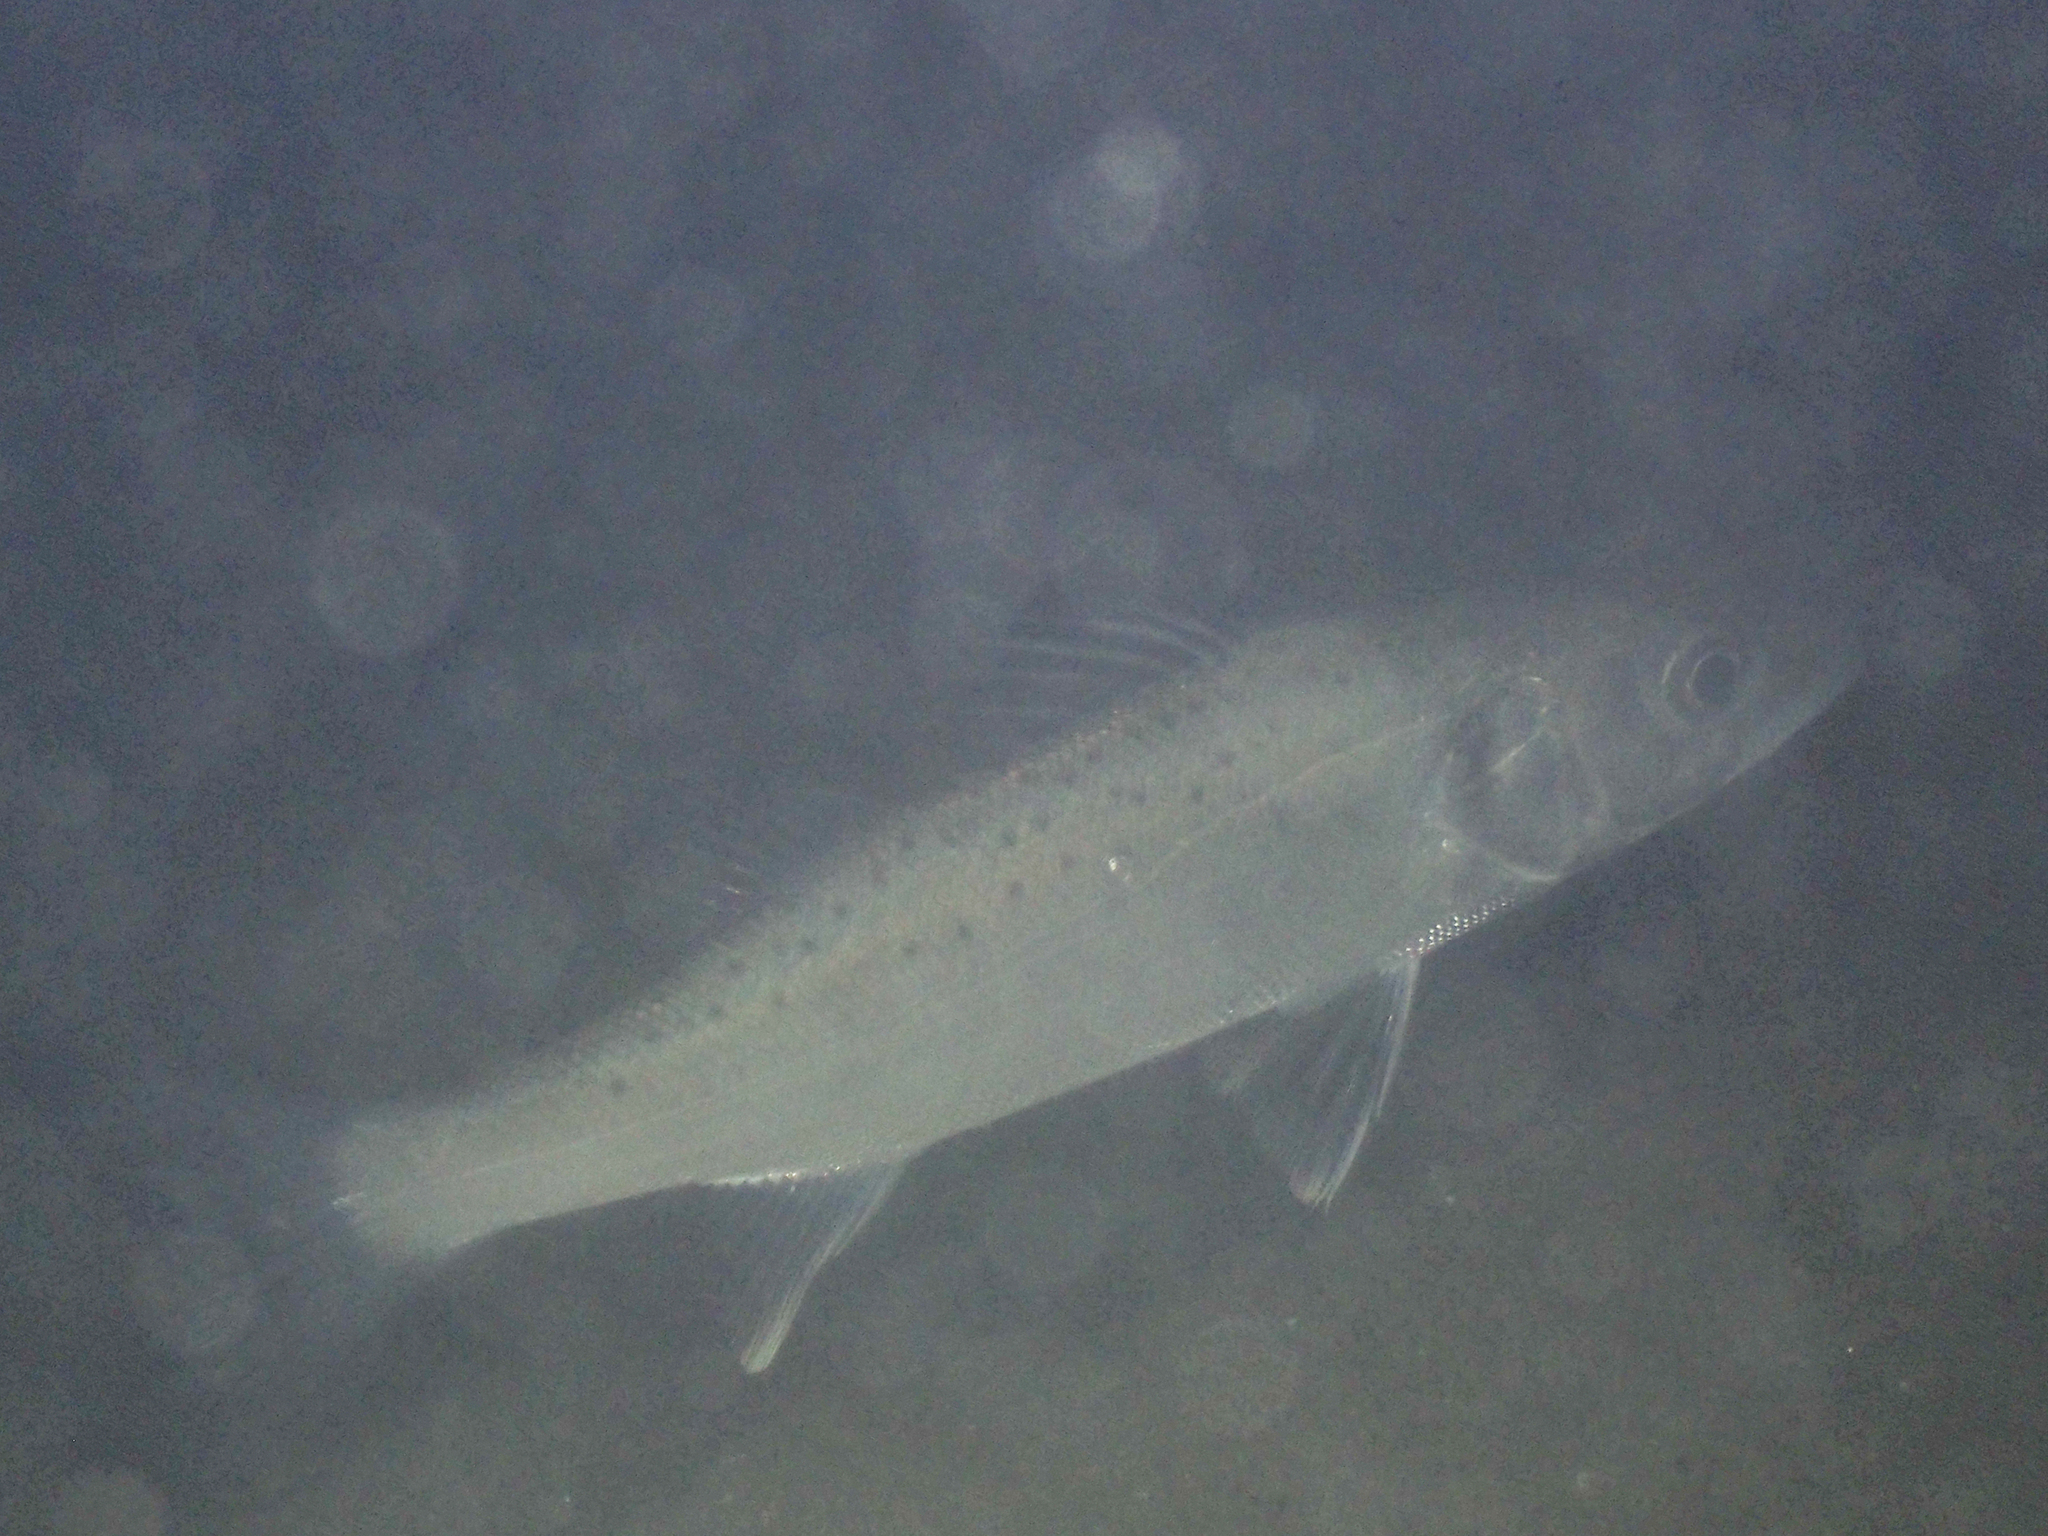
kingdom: Animalia
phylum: Chordata
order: Perciformes
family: Moronidae
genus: Dicentrarchus
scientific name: Dicentrarchus labrax
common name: European seabass
